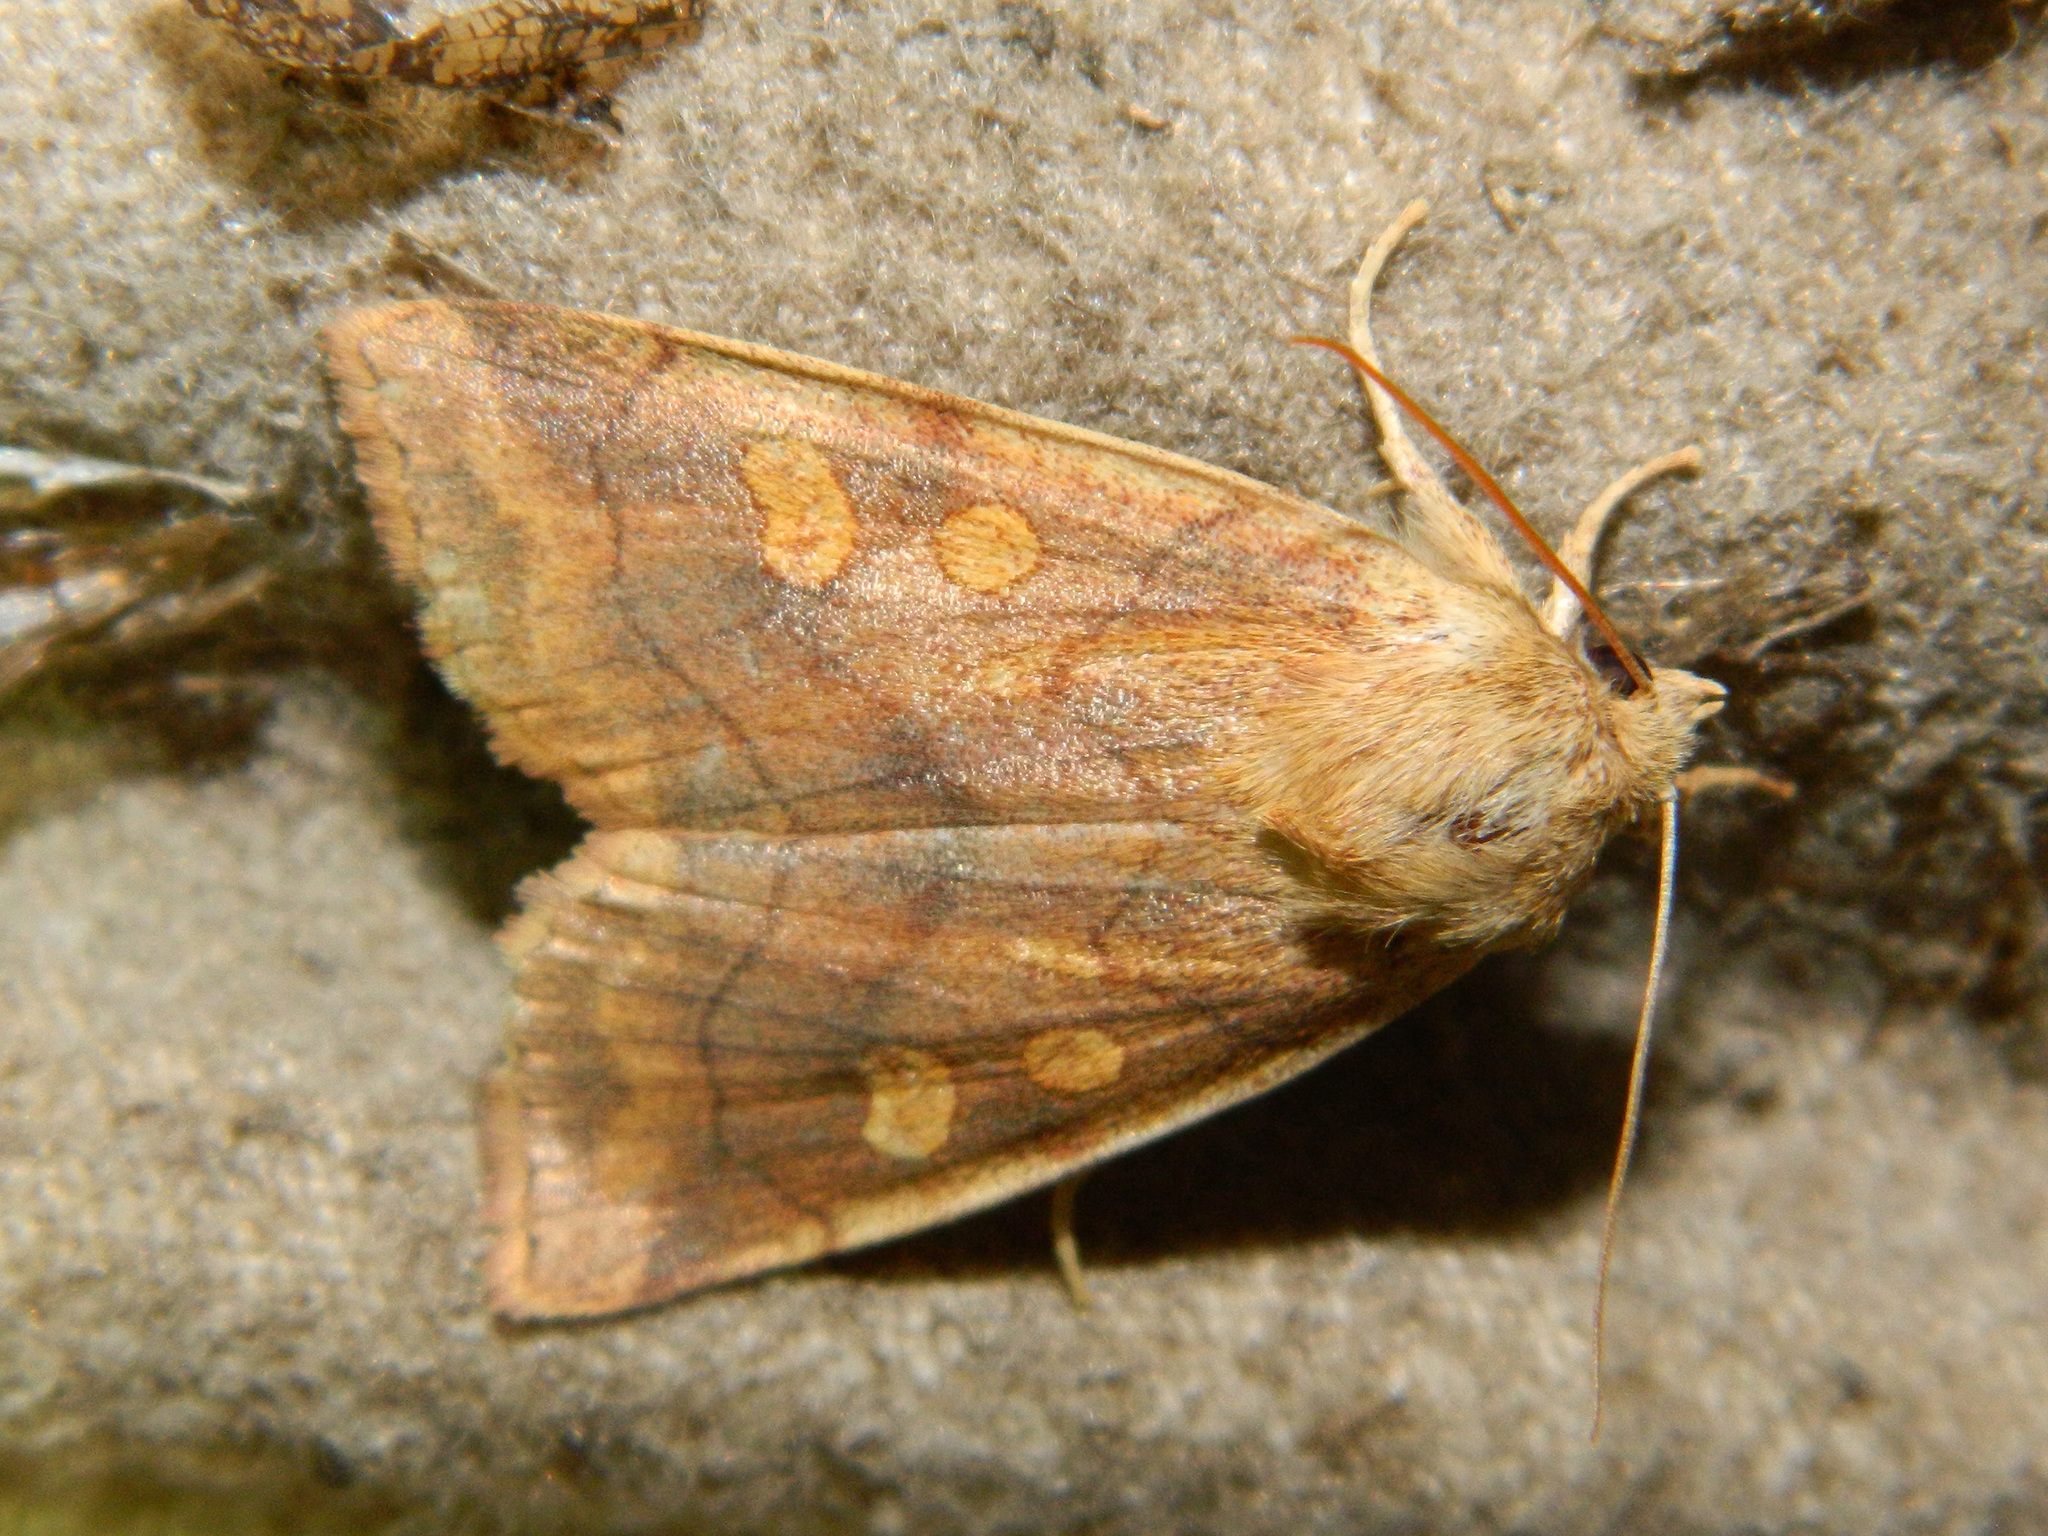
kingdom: Animalia
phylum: Arthropoda
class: Insecta
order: Lepidoptera
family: Noctuidae
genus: Enargia
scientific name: Enargia decolor
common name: Aspen twoleaf tier moth
